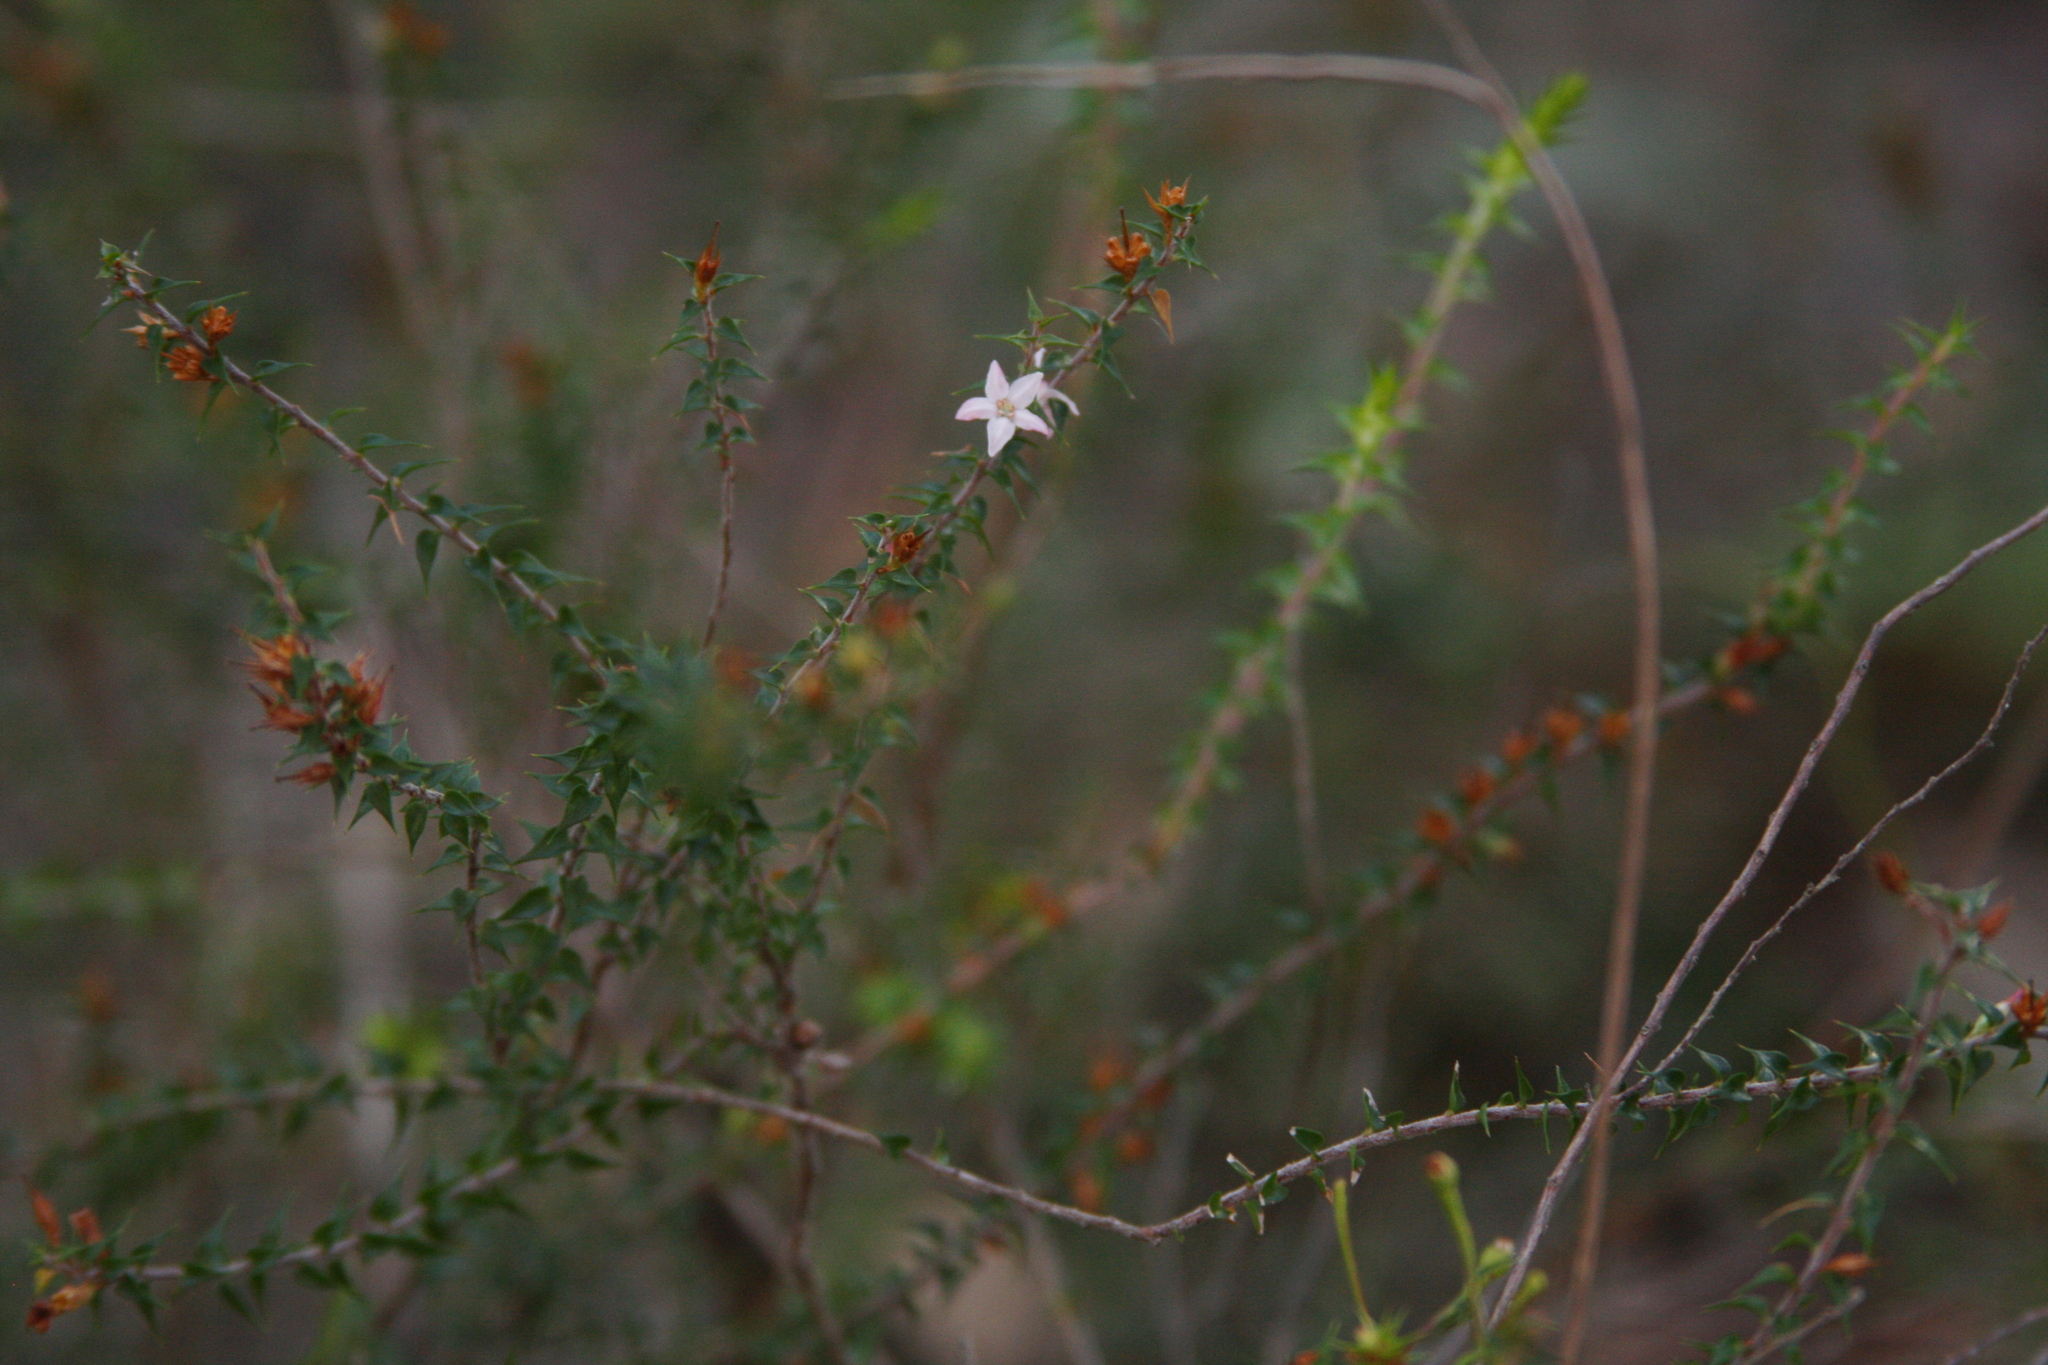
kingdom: Plantae
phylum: Tracheophyta
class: Magnoliopsida
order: Ericales
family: Ericaceae
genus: Epacris
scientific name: Epacris pulchella
